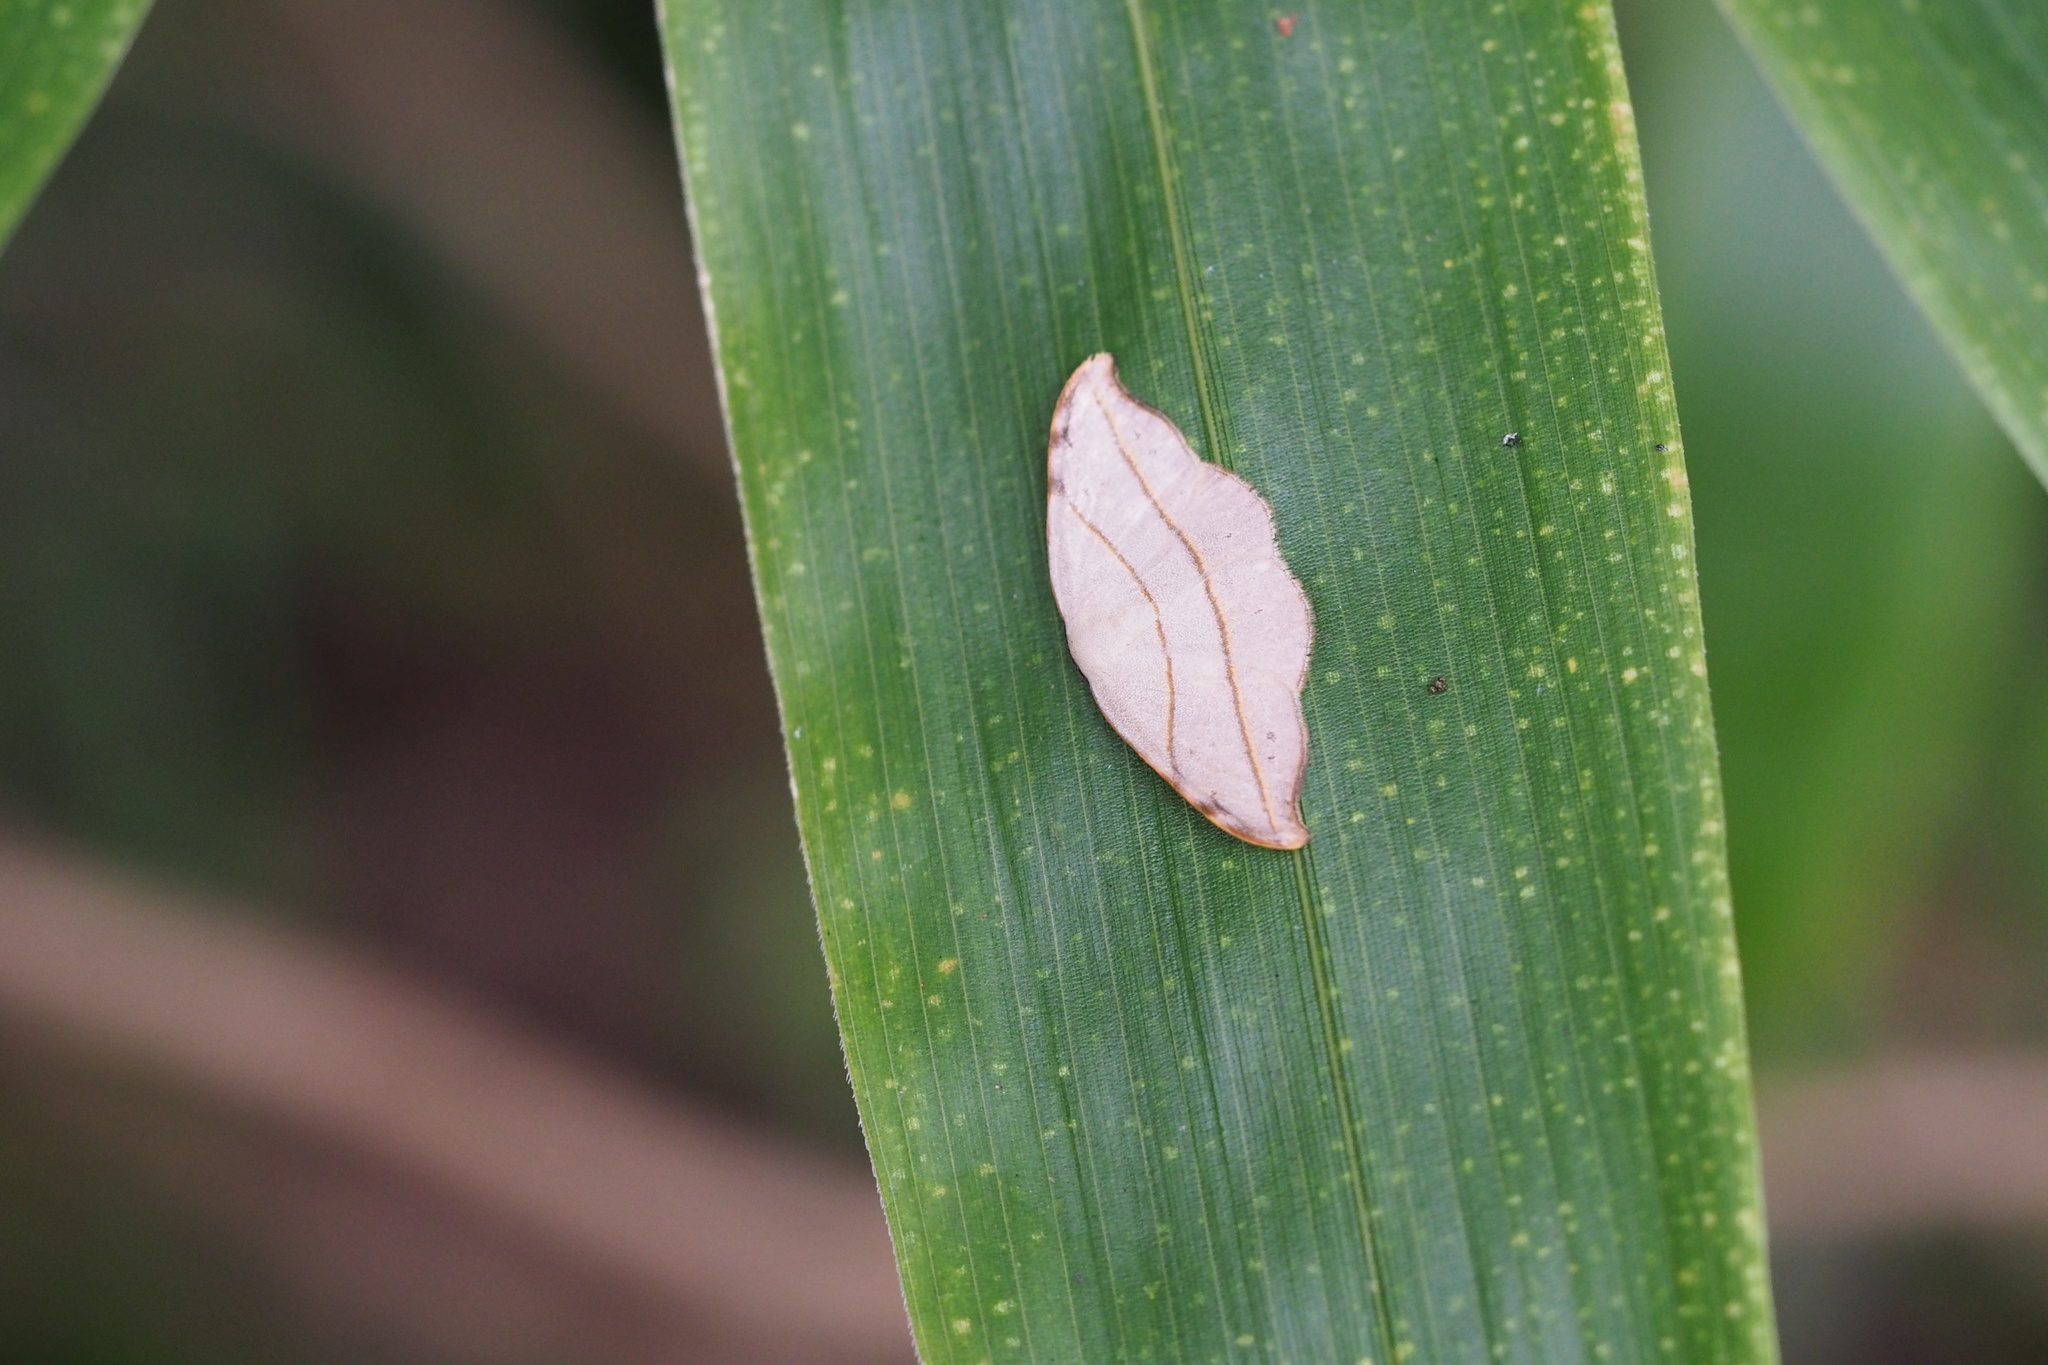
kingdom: Animalia
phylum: Arthropoda
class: Insecta
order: Lepidoptera
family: Drepanidae
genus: Nordstromia
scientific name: Nordstromia japonica
